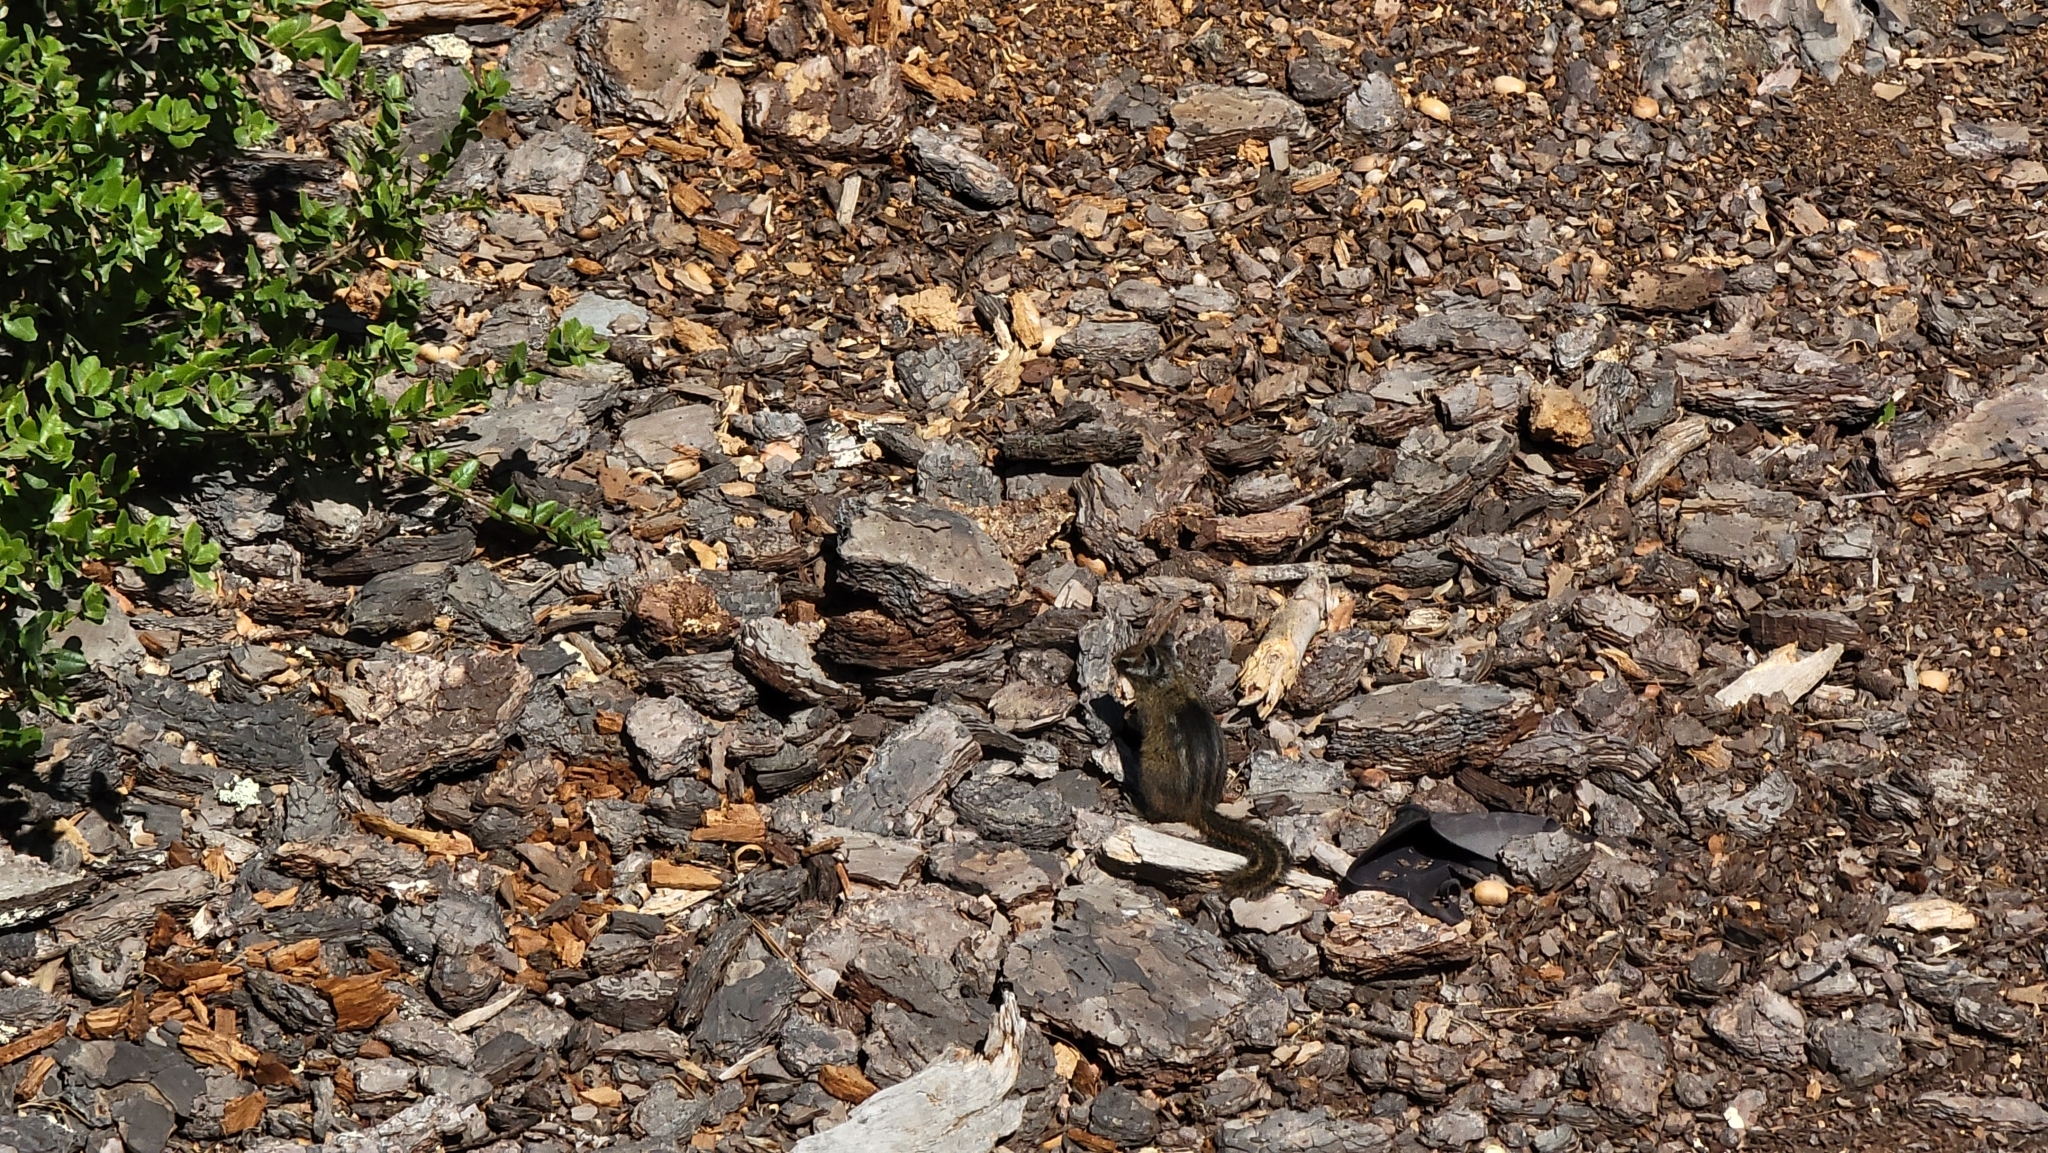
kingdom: Animalia
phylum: Chordata
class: Mammalia
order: Rodentia
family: Sciuridae
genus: Tamias
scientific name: Tamias merriami
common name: Merriam's chipmunk
